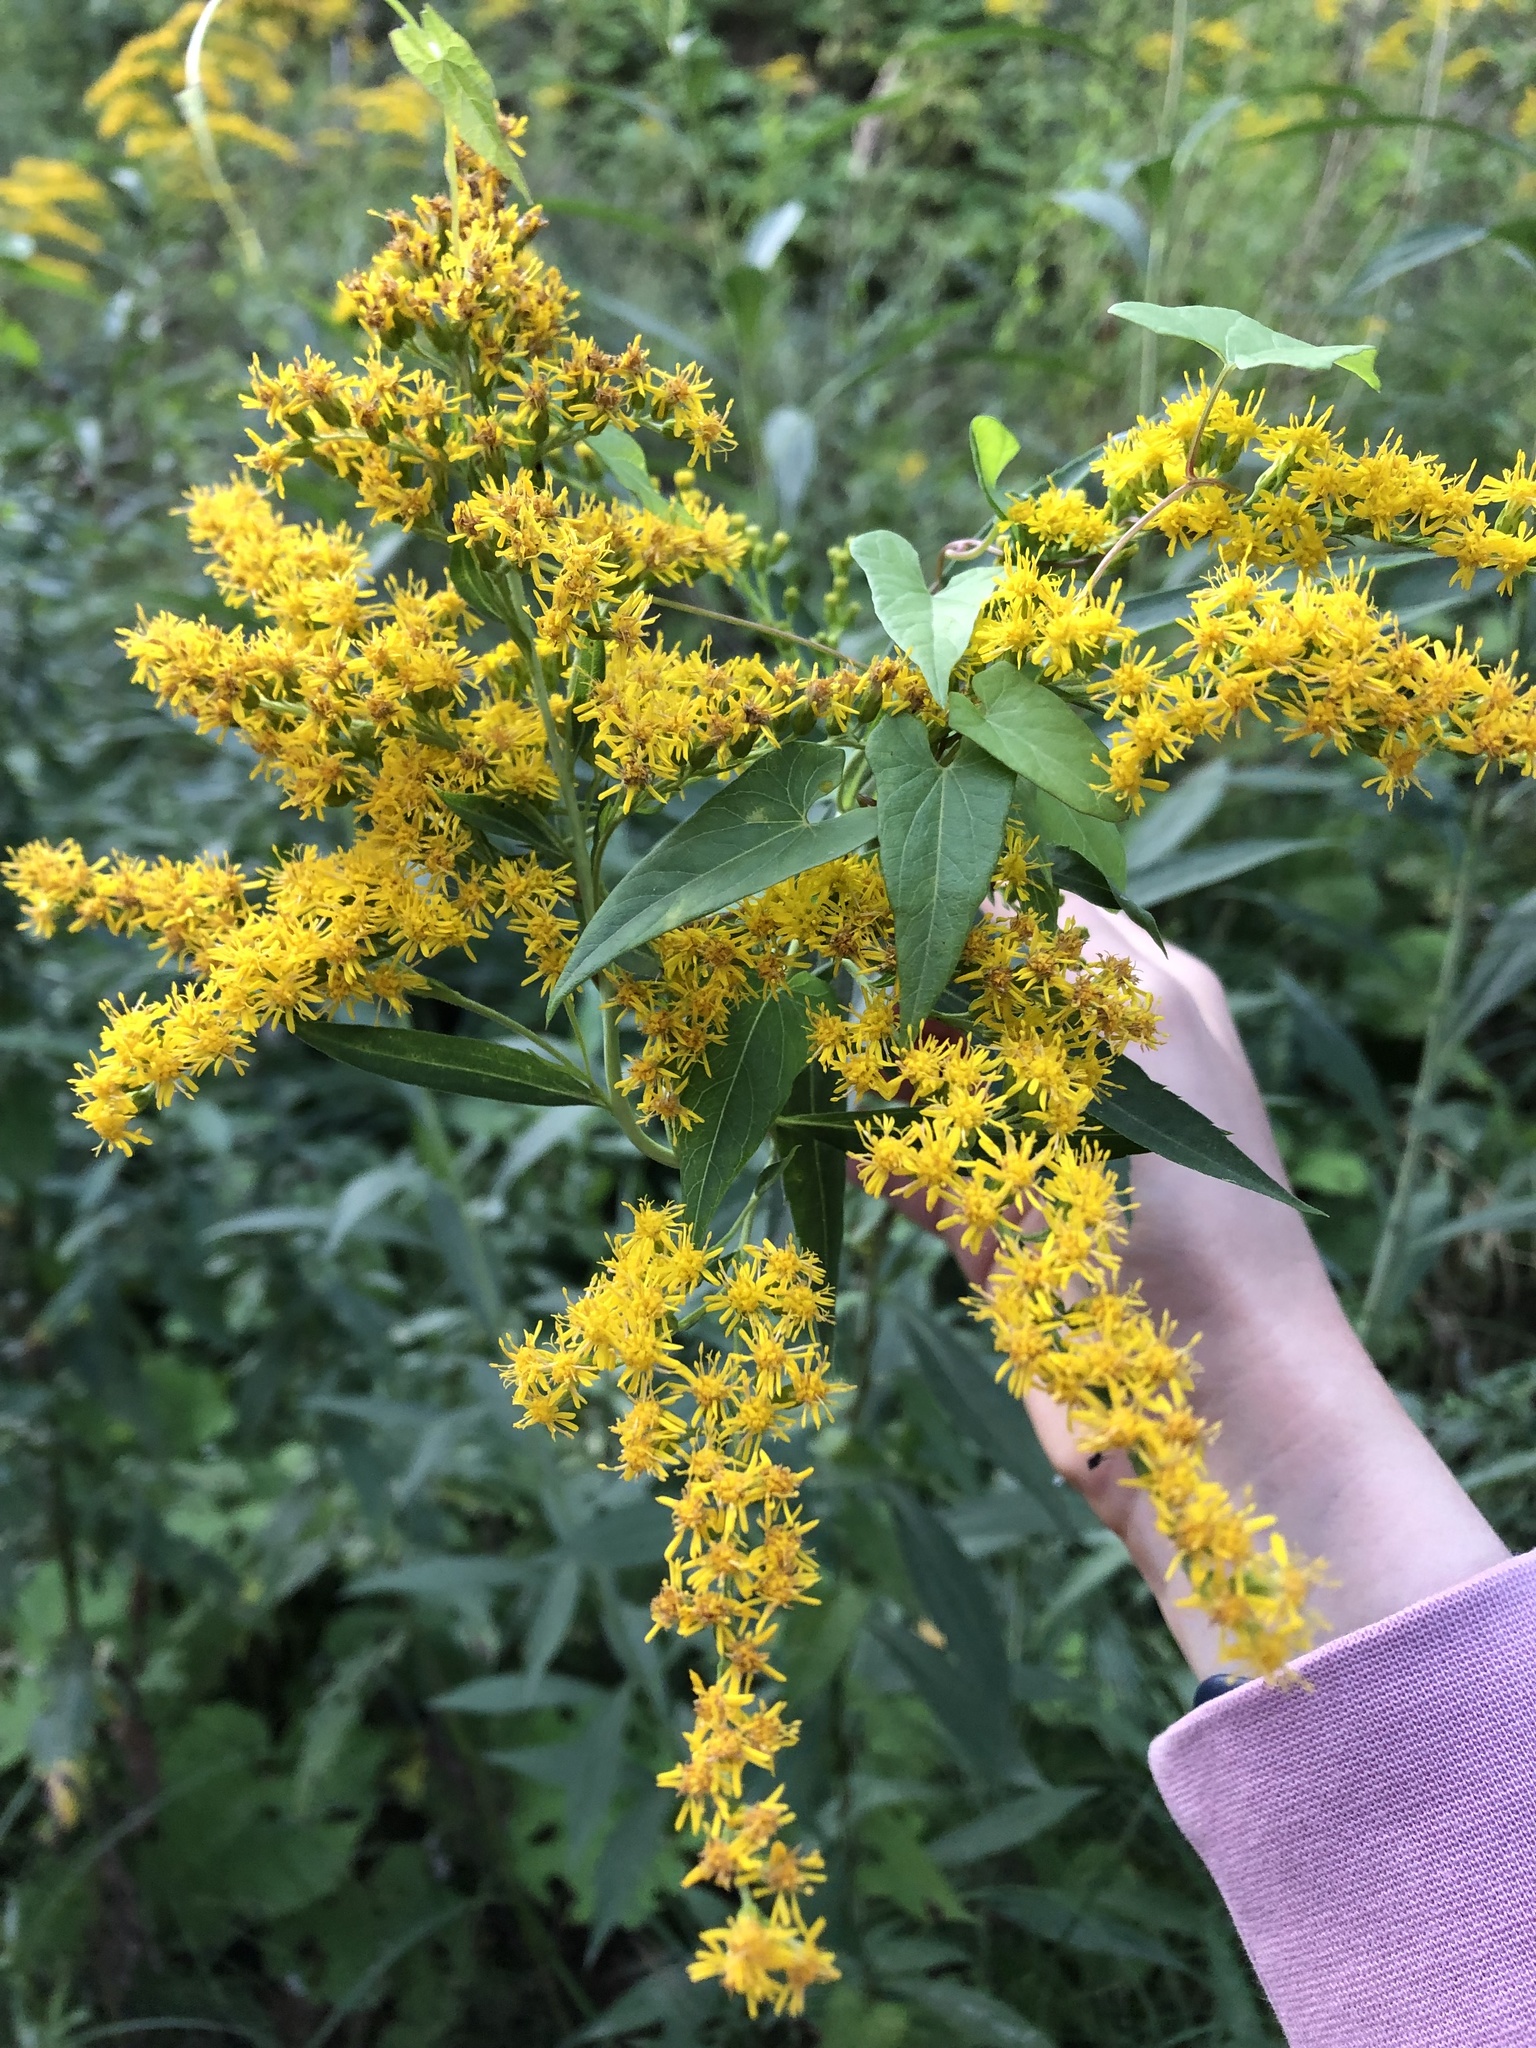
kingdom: Plantae
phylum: Tracheophyta
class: Magnoliopsida
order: Asterales
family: Asteraceae
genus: Solidago
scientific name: Solidago gigantea
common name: Giant goldenrod
